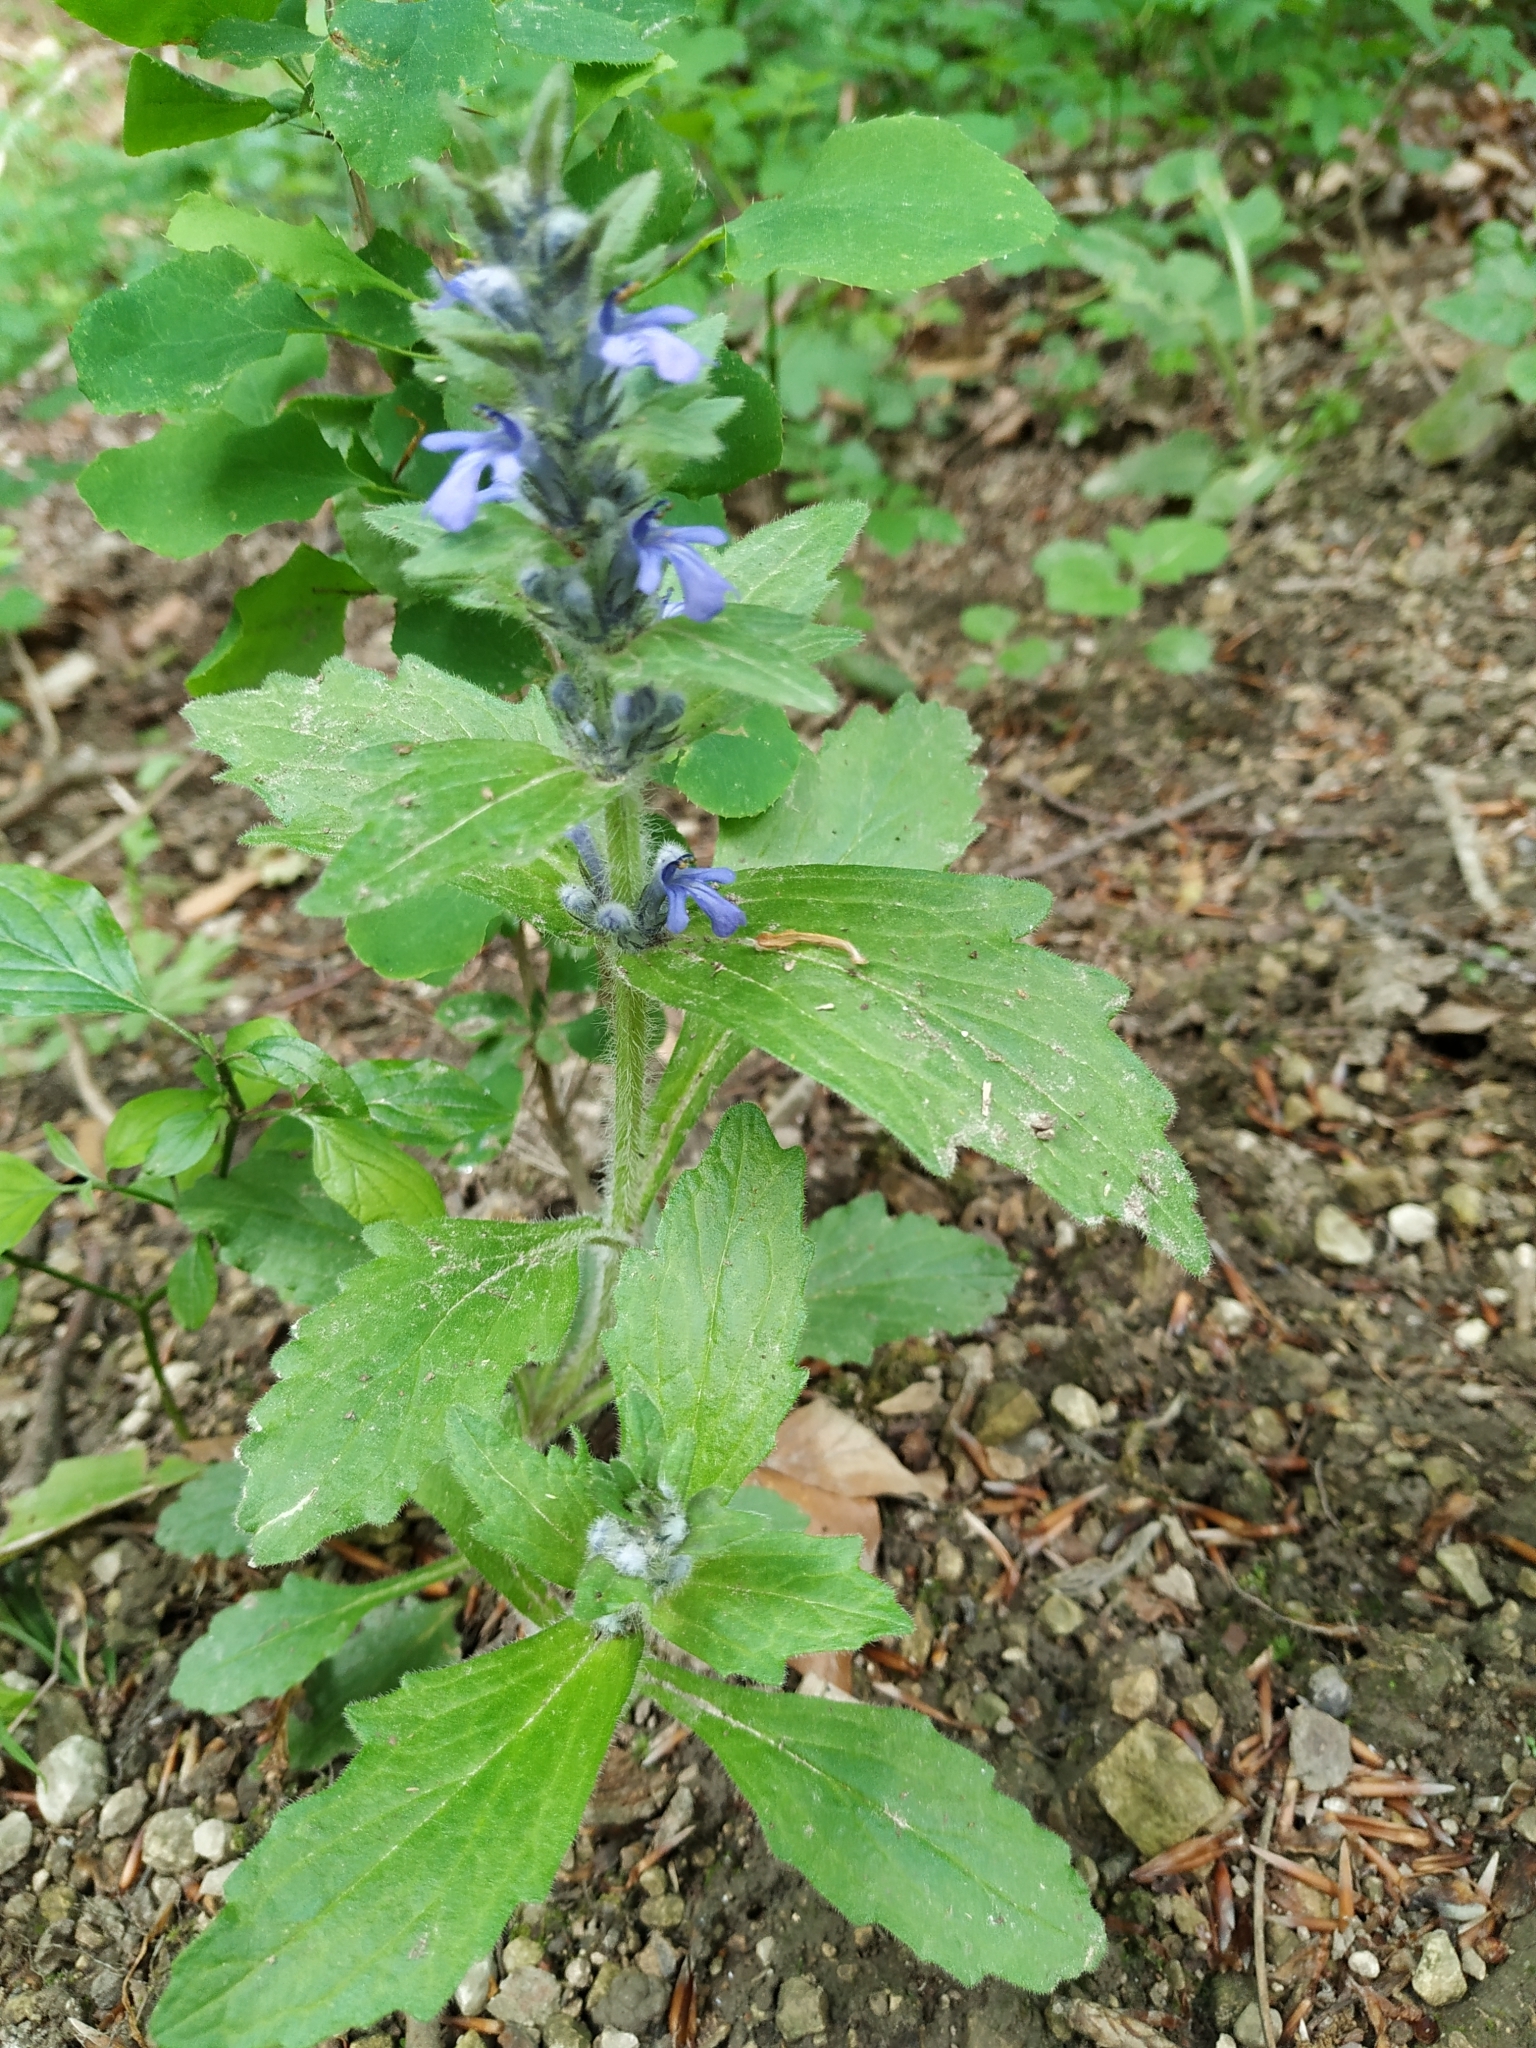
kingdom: Plantae
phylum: Tracheophyta
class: Magnoliopsida
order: Lamiales
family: Lamiaceae
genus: Ajuga
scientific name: Ajuga genevensis
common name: Blue bugle
